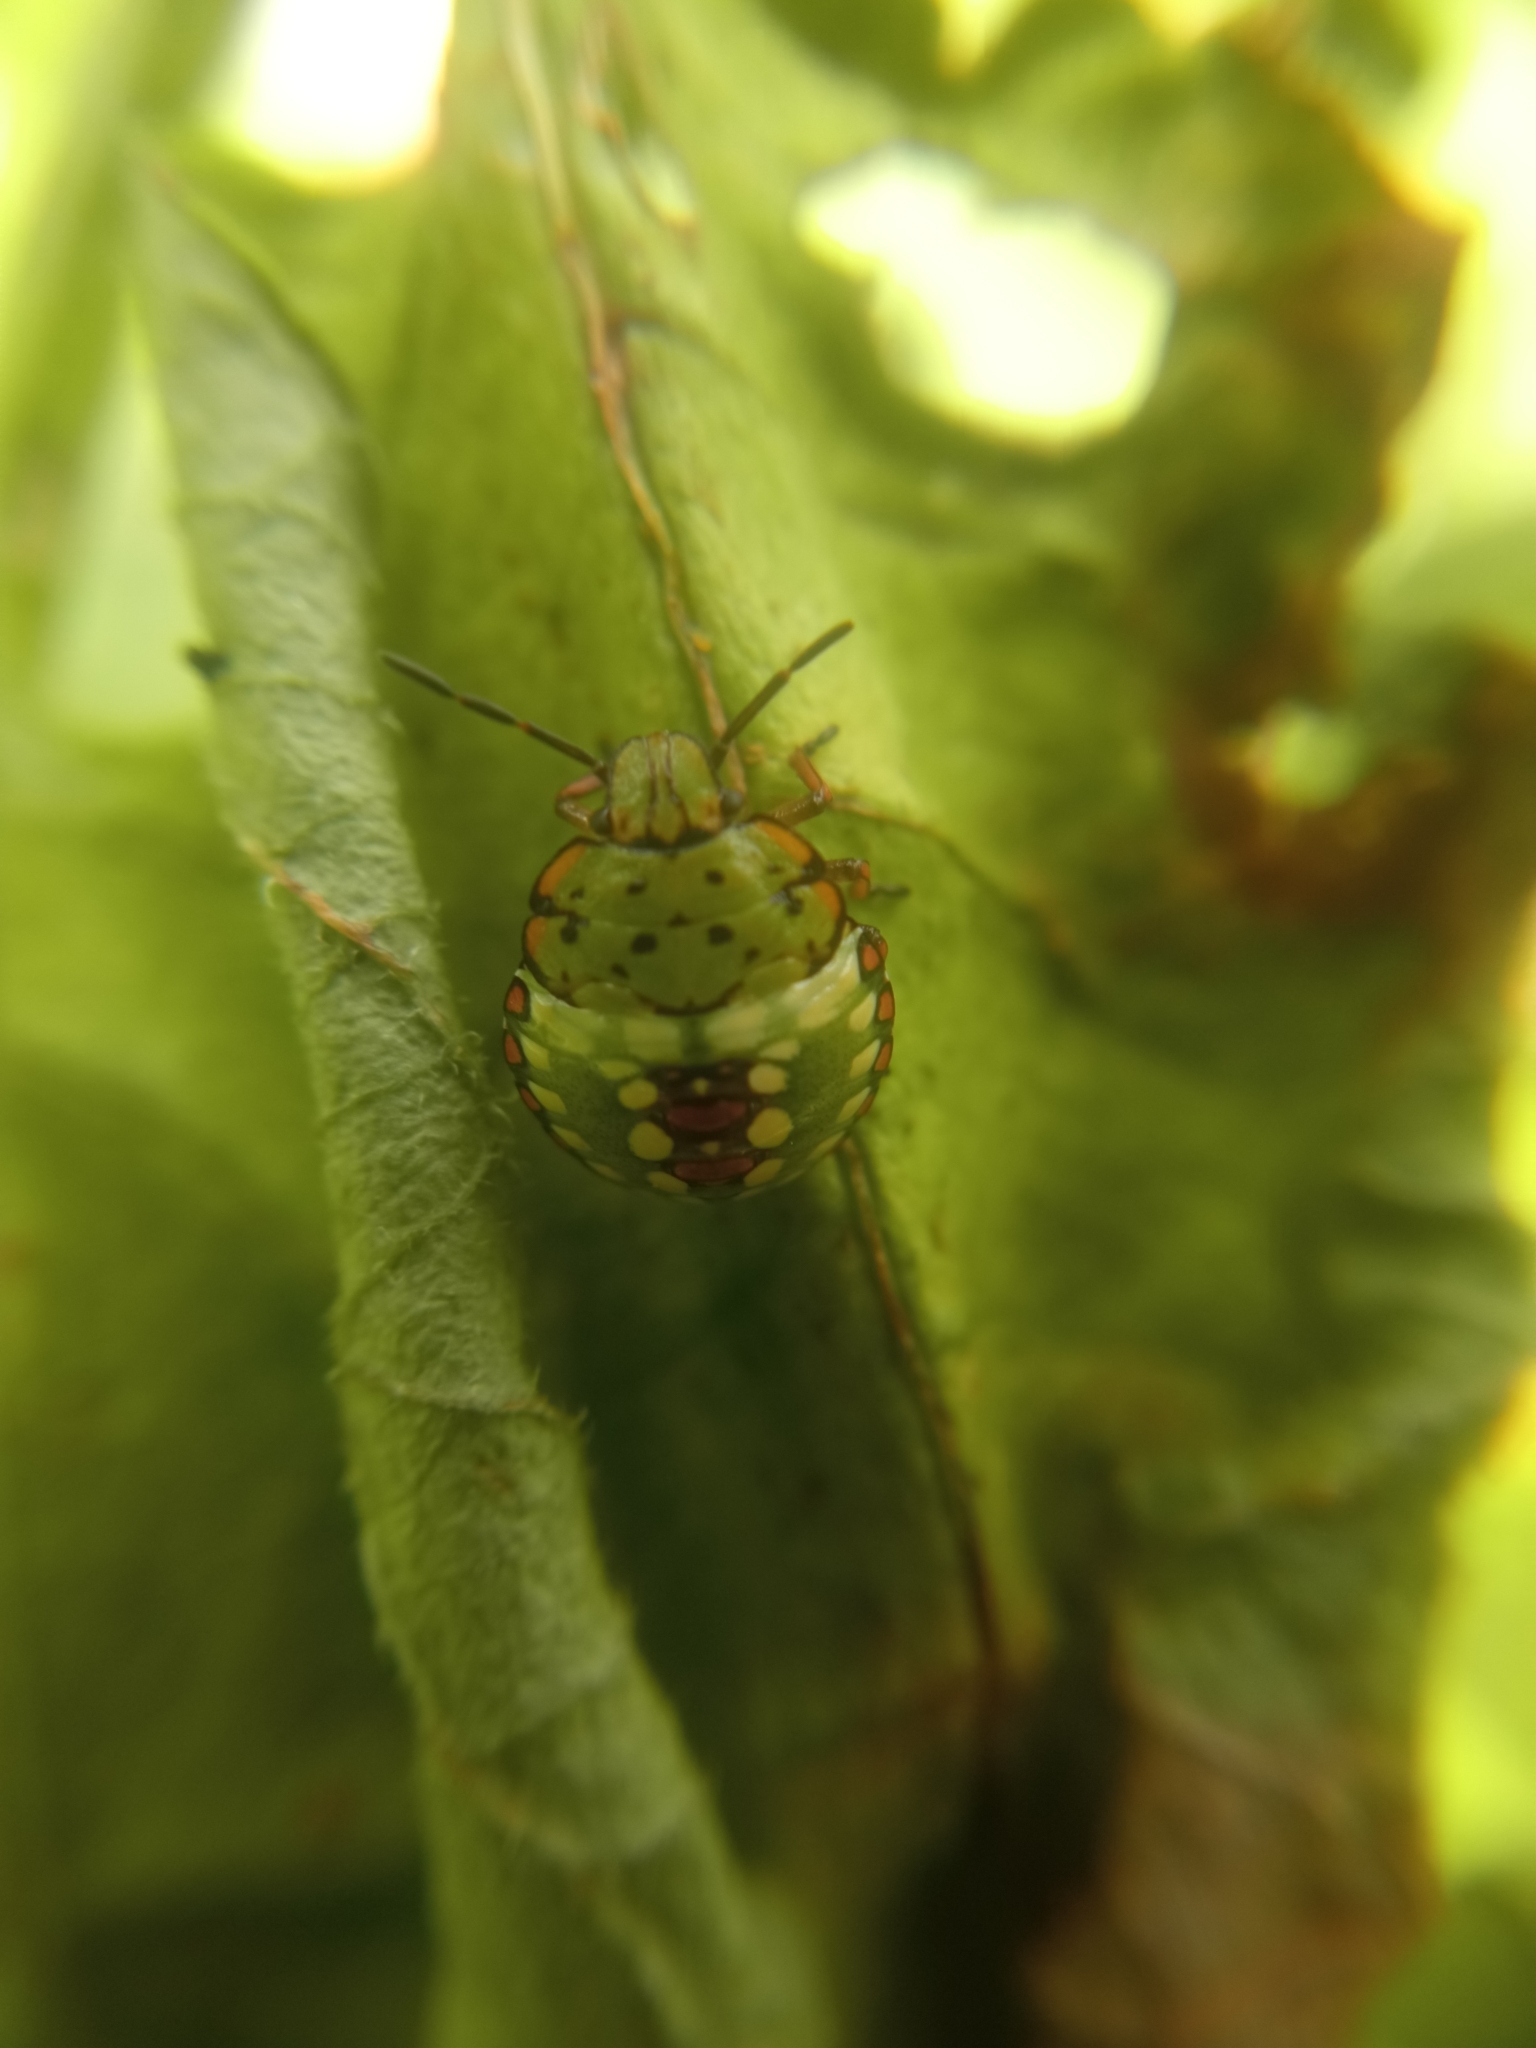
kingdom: Animalia
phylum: Arthropoda
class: Insecta
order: Hemiptera
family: Pentatomidae
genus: Nezara
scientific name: Nezara viridula
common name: Southern green stink bug
